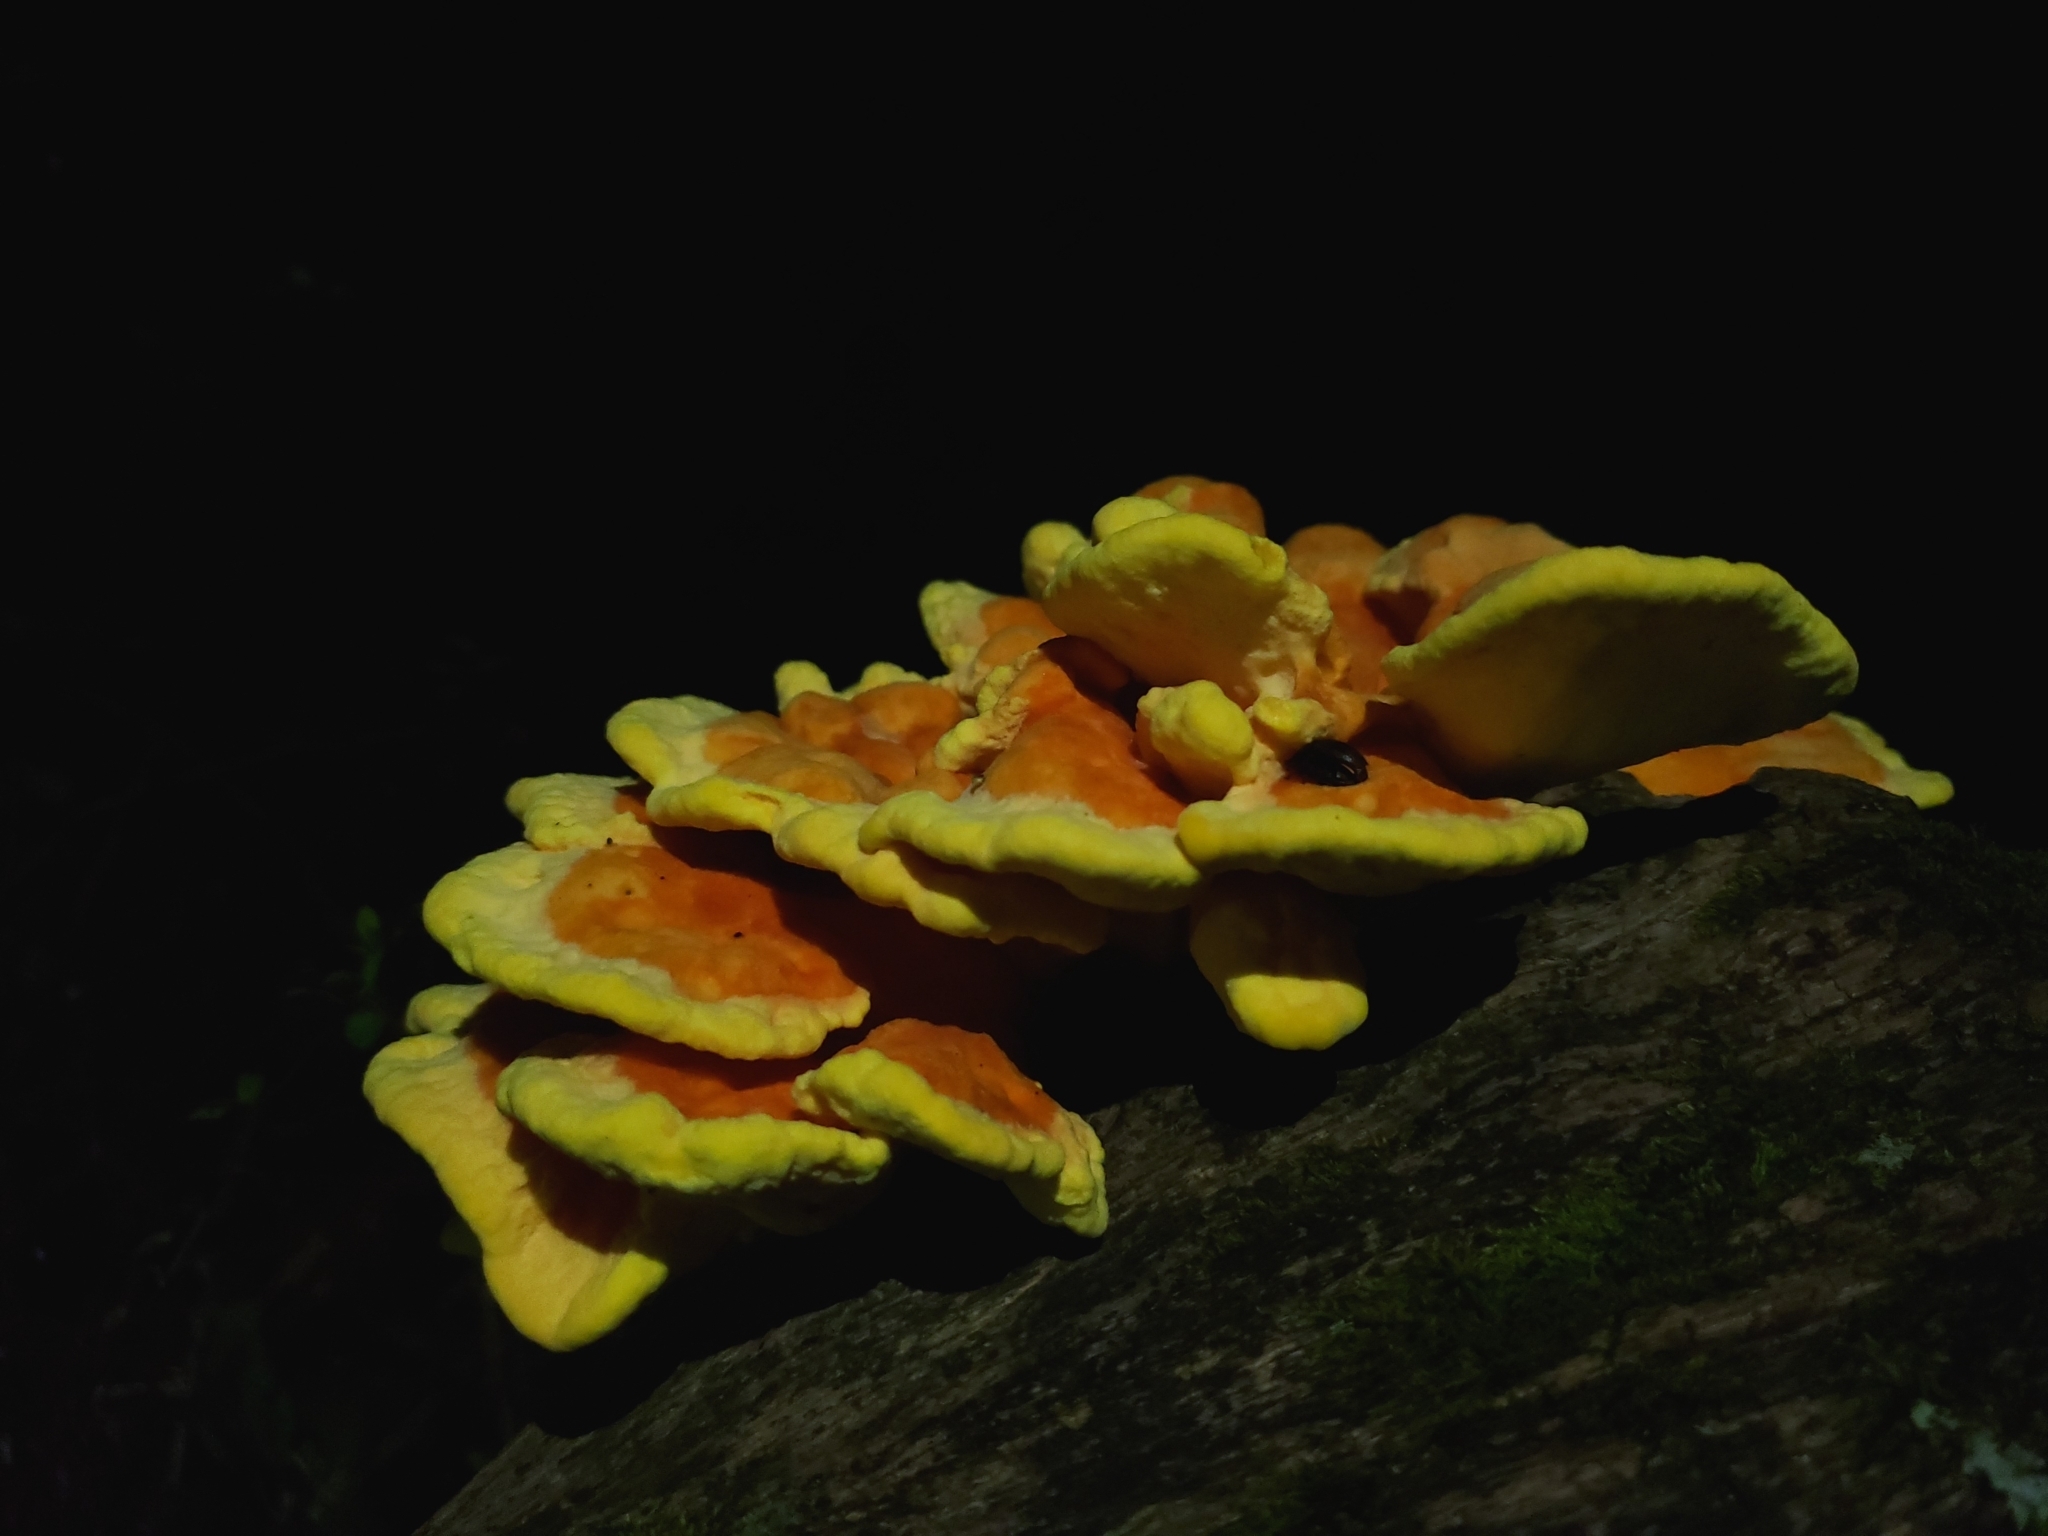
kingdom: Fungi
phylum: Basidiomycota
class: Agaricomycetes
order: Polyporales
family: Laetiporaceae
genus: Laetiporus
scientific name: Laetiporus sulphureus
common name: Chicken of the woods
